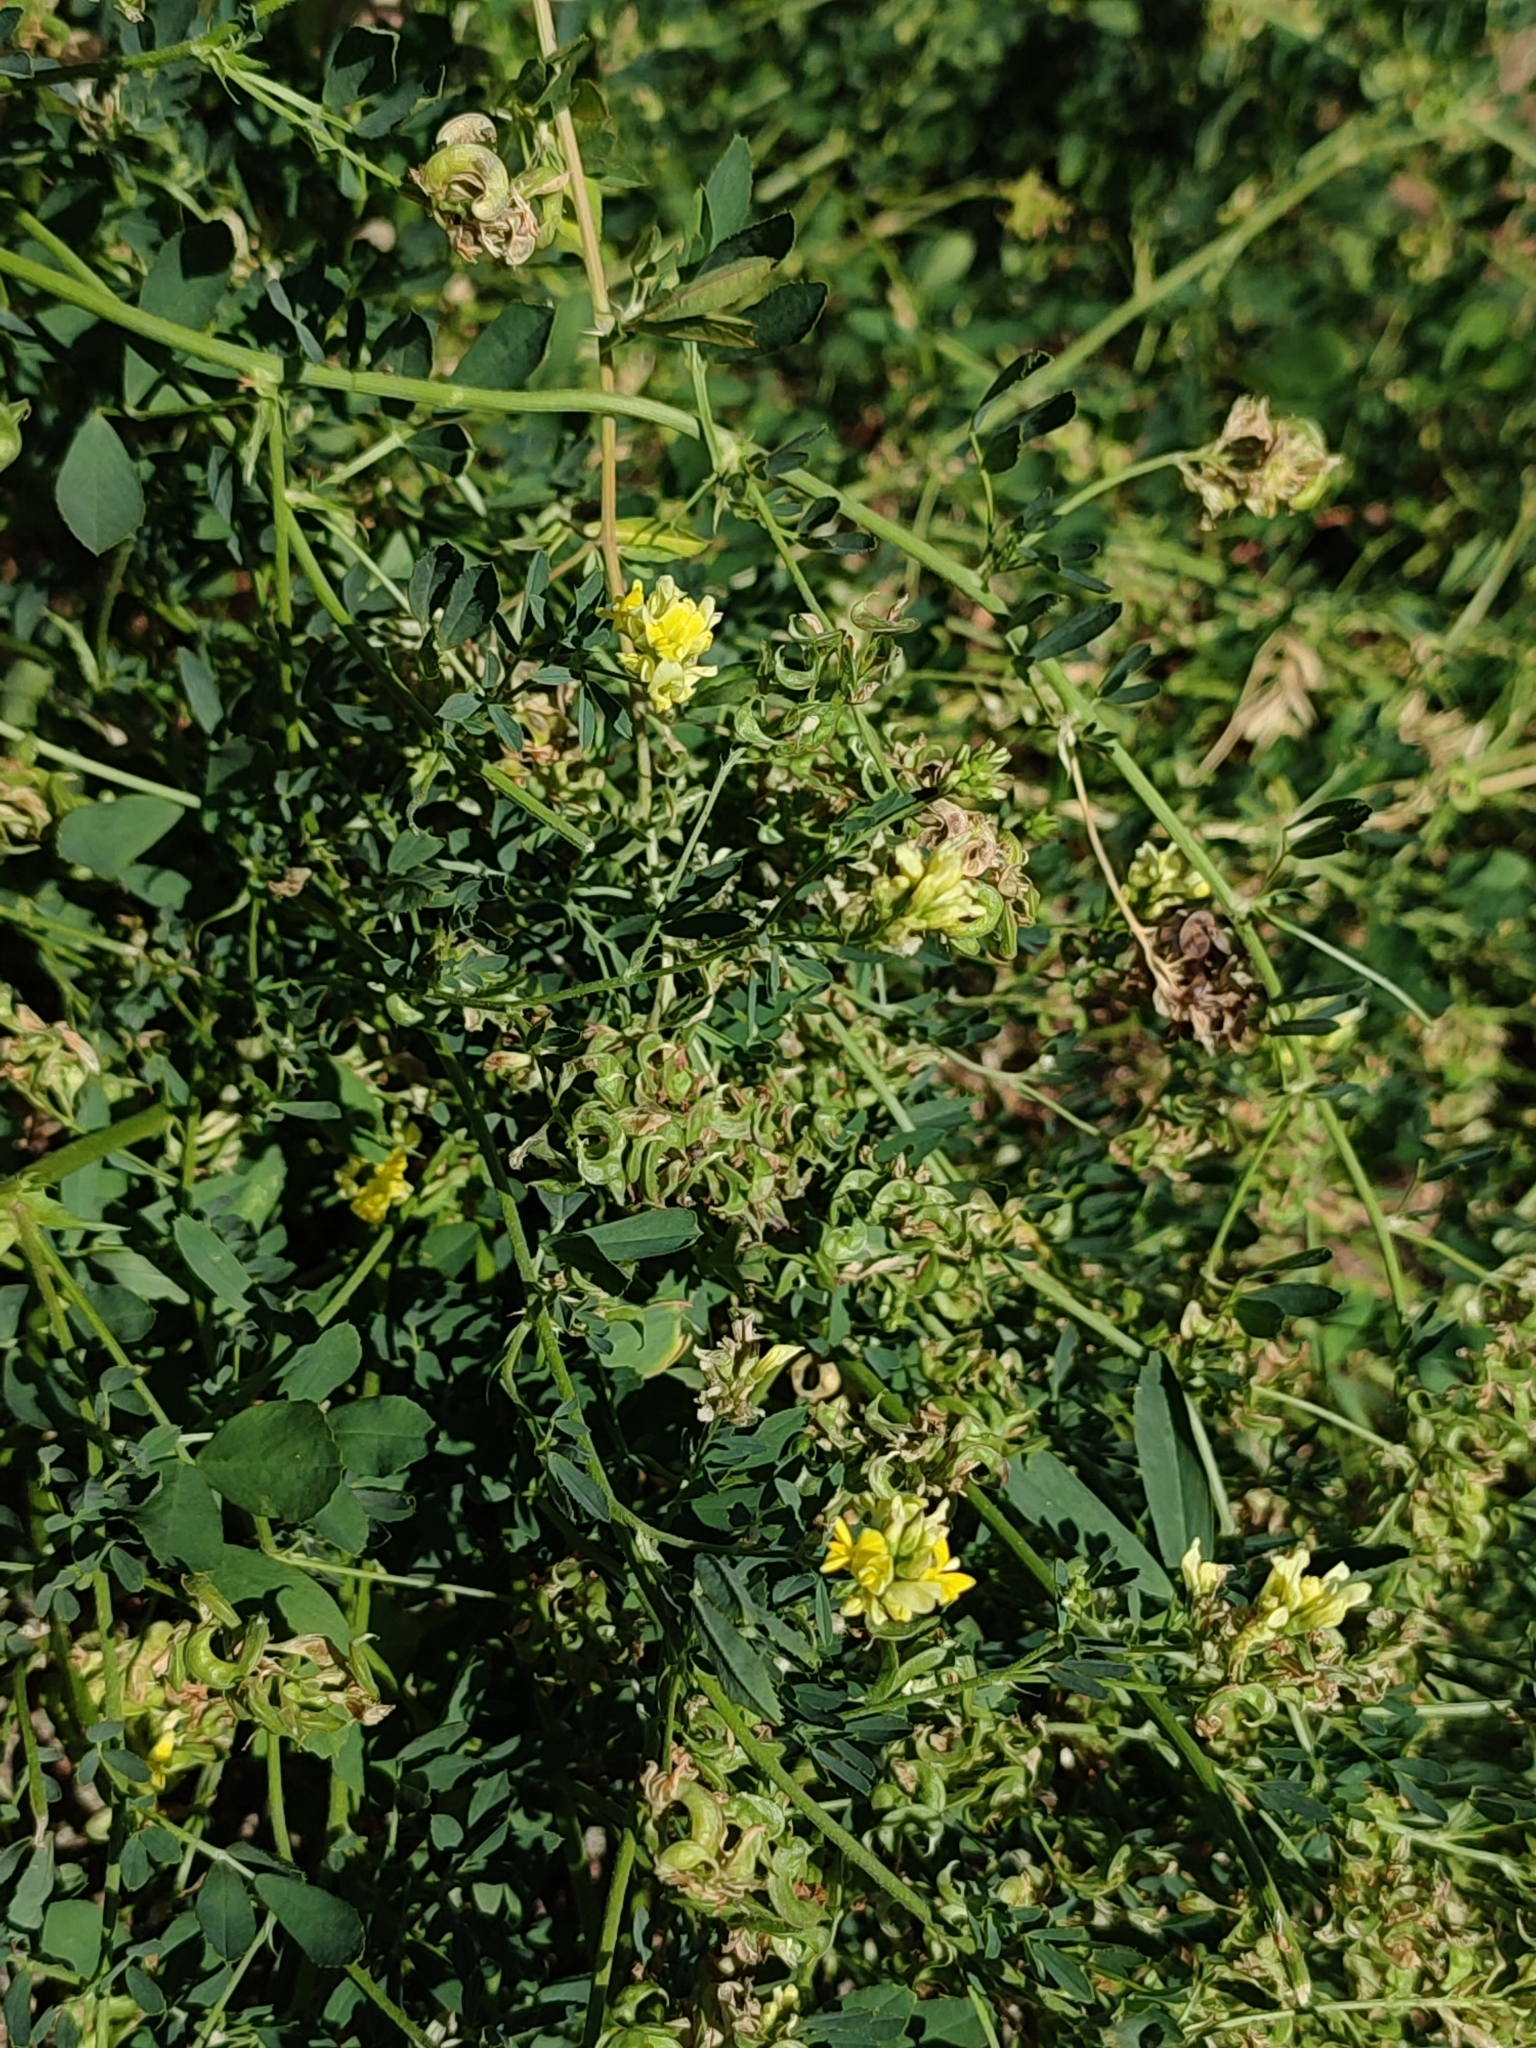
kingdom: Plantae
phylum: Tracheophyta
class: Magnoliopsida
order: Fabales
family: Fabaceae
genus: Medicago
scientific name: Medicago falcata
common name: Sickle medick
